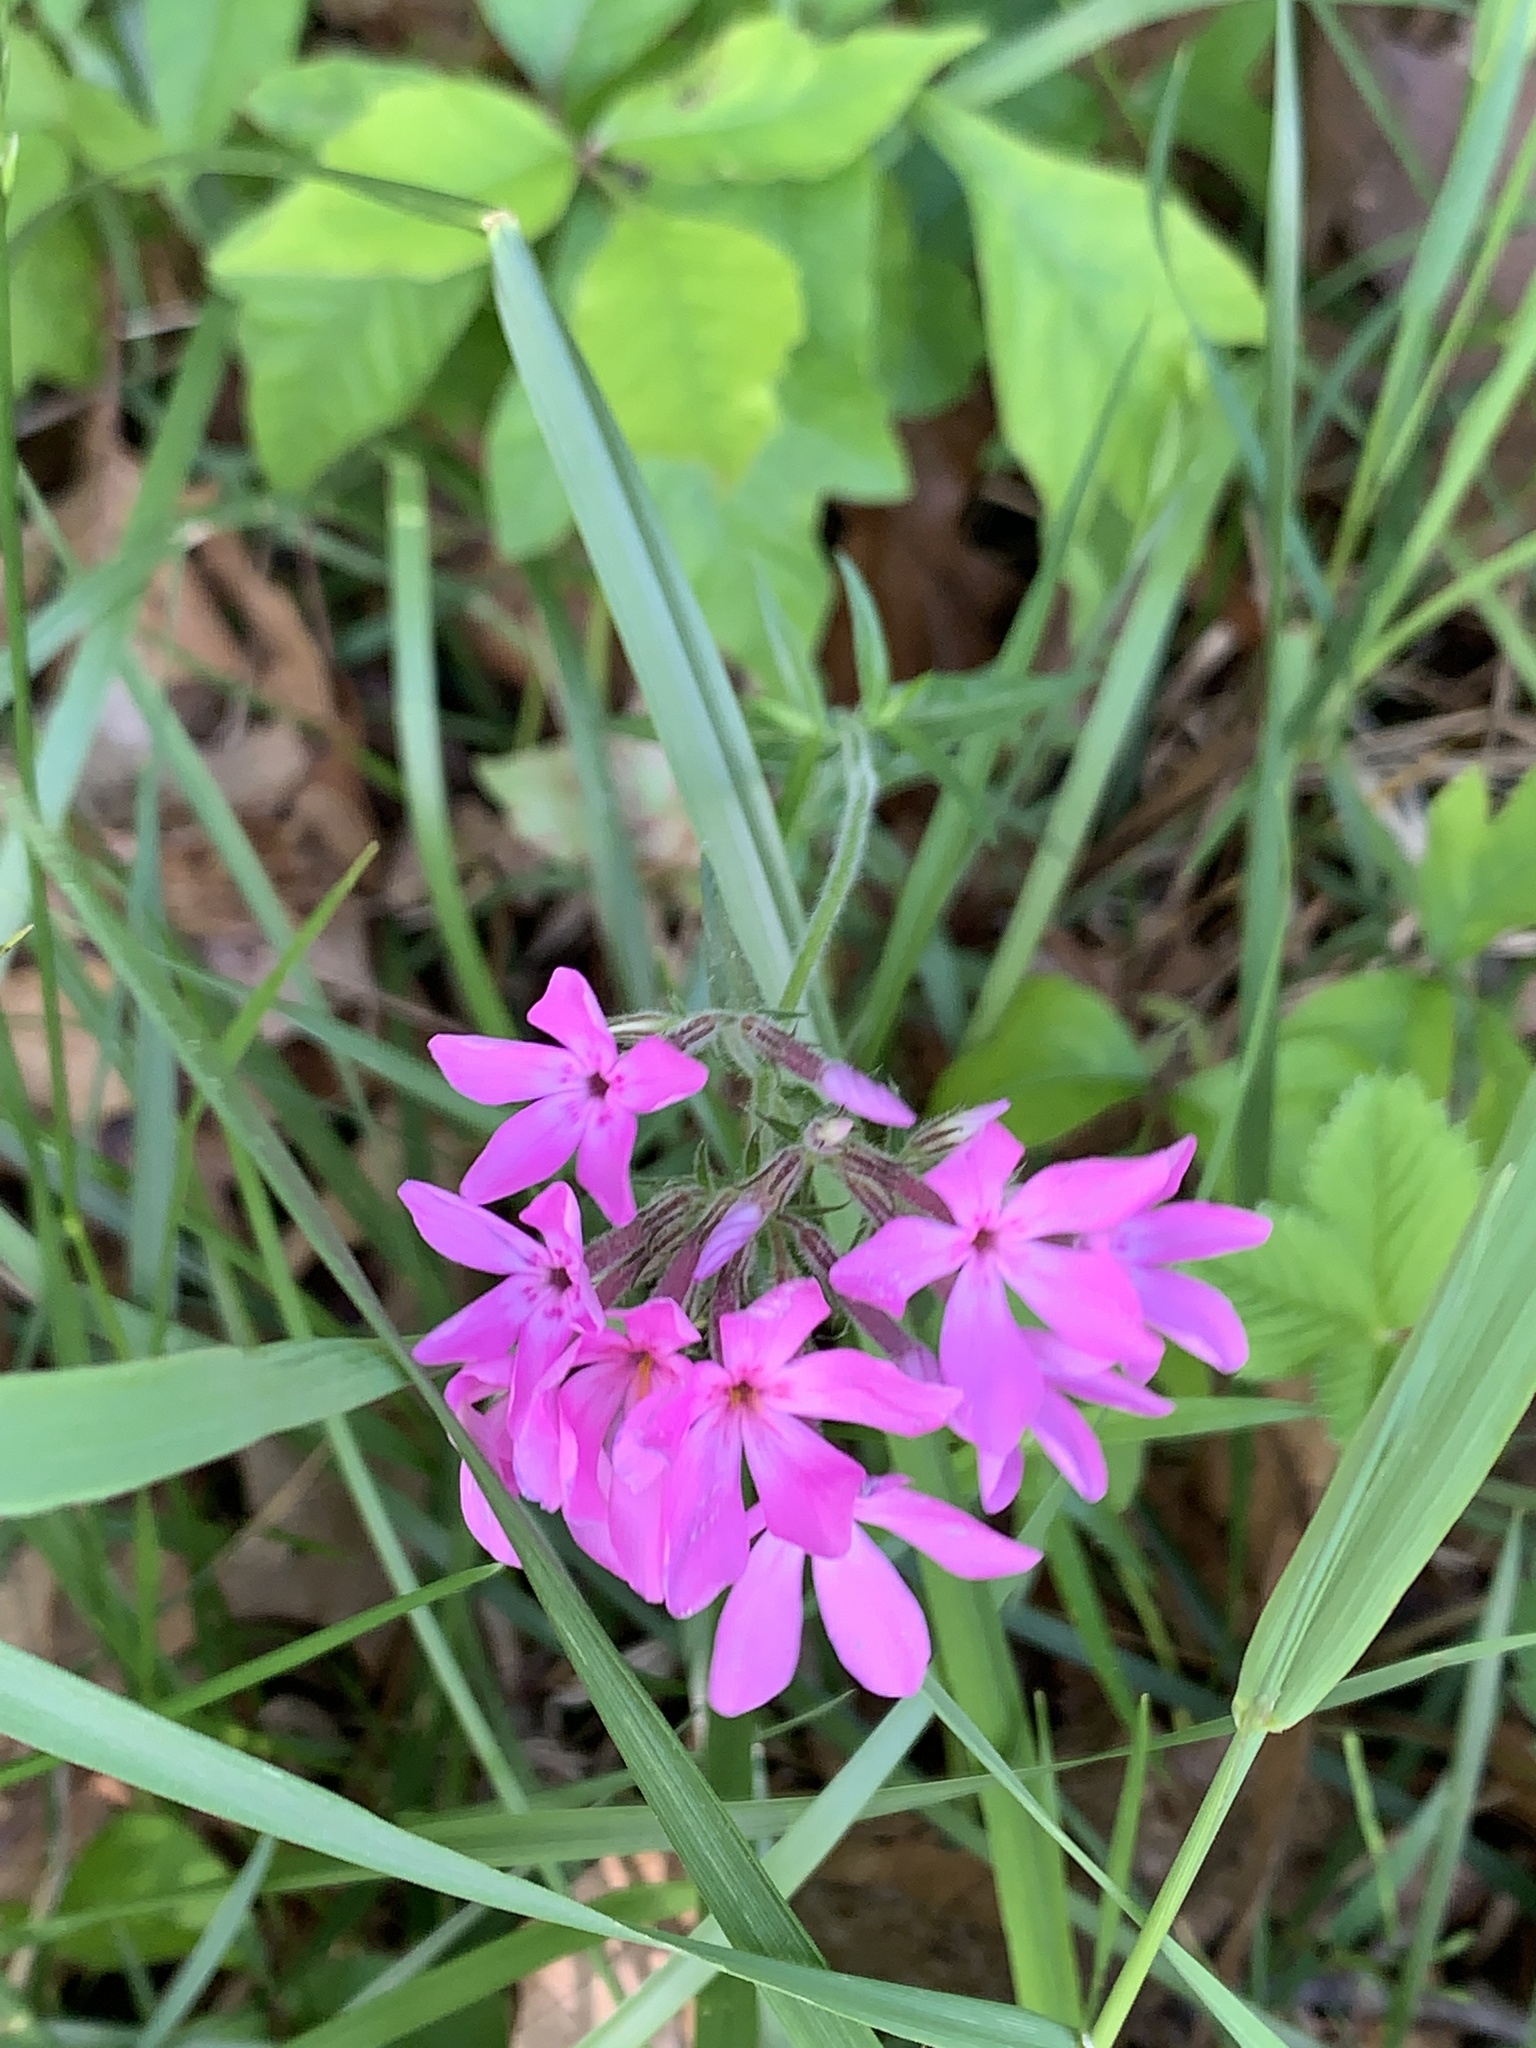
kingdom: Plantae
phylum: Tracheophyta
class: Magnoliopsida
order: Ericales
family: Polemoniaceae
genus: Phlox
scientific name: Phlox pilosa
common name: Prairie phlox
